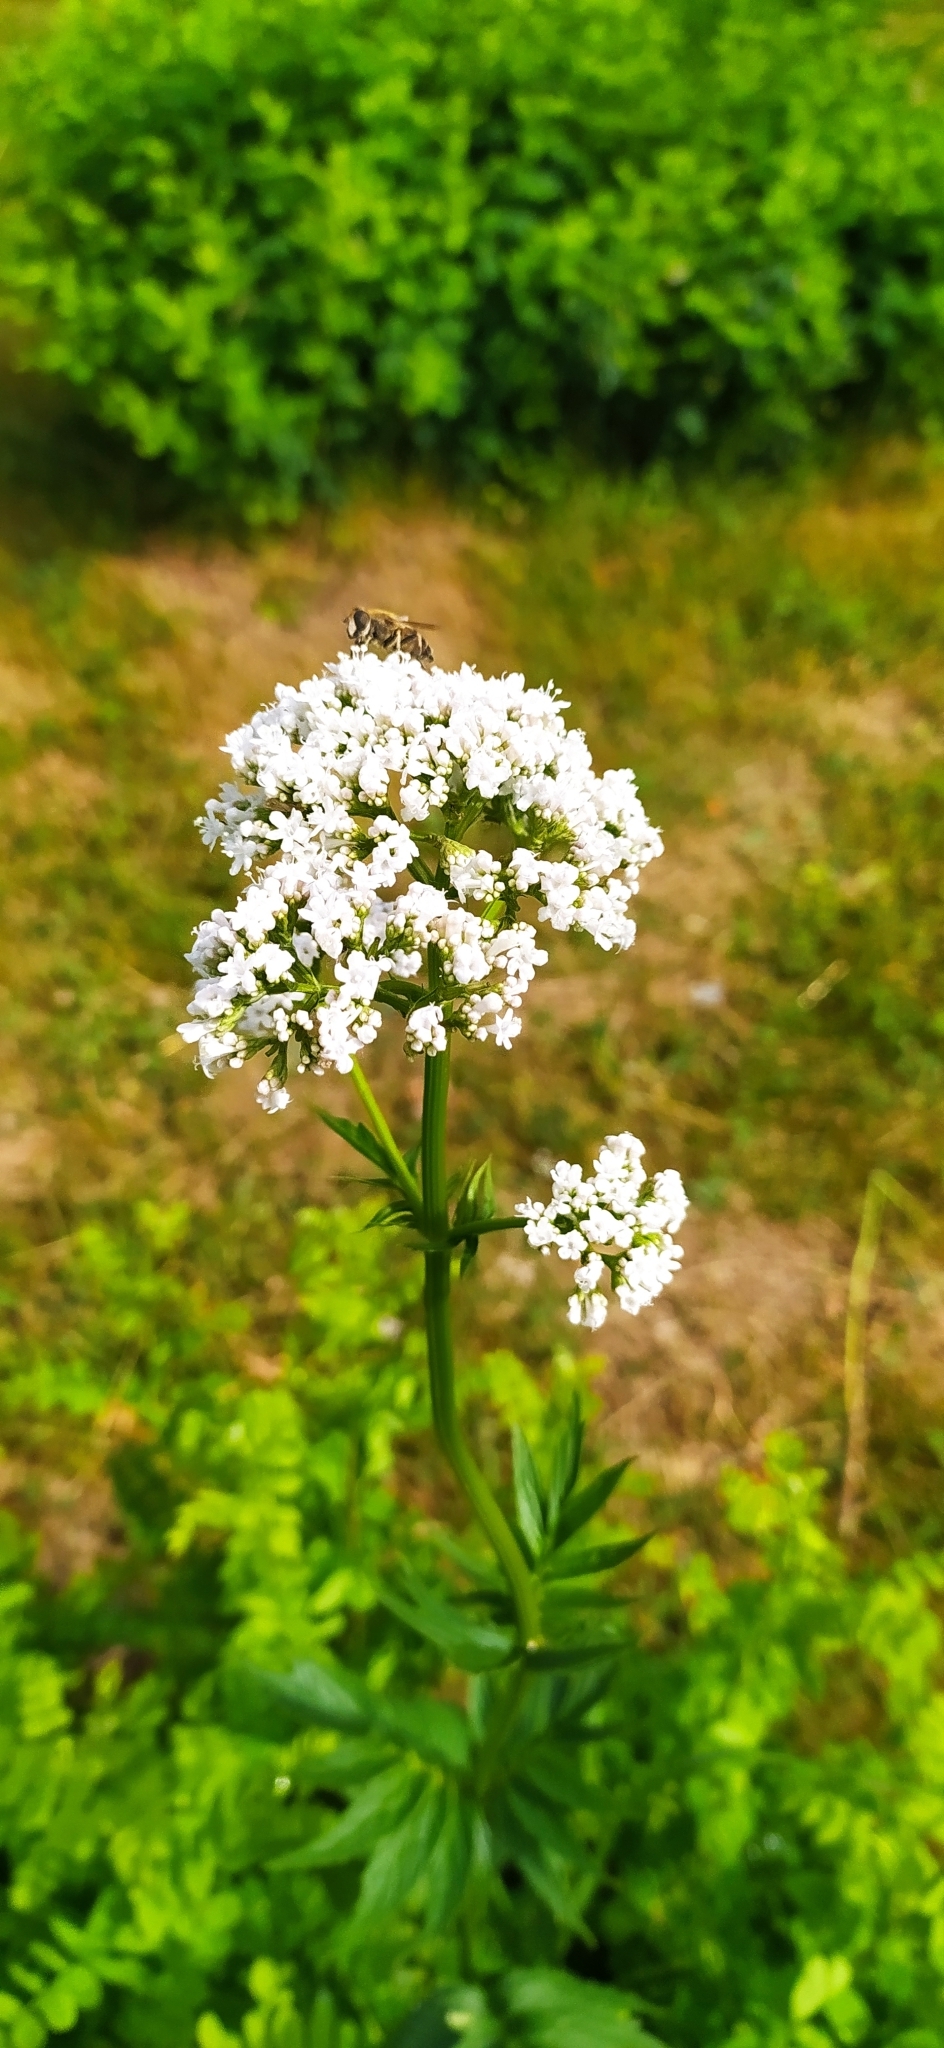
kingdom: Plantae
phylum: Tracheophyta
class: Magnoliopsida
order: Dipsacales
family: Caprifoliaceae
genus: Valeriana
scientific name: Valeriana wolgensis
